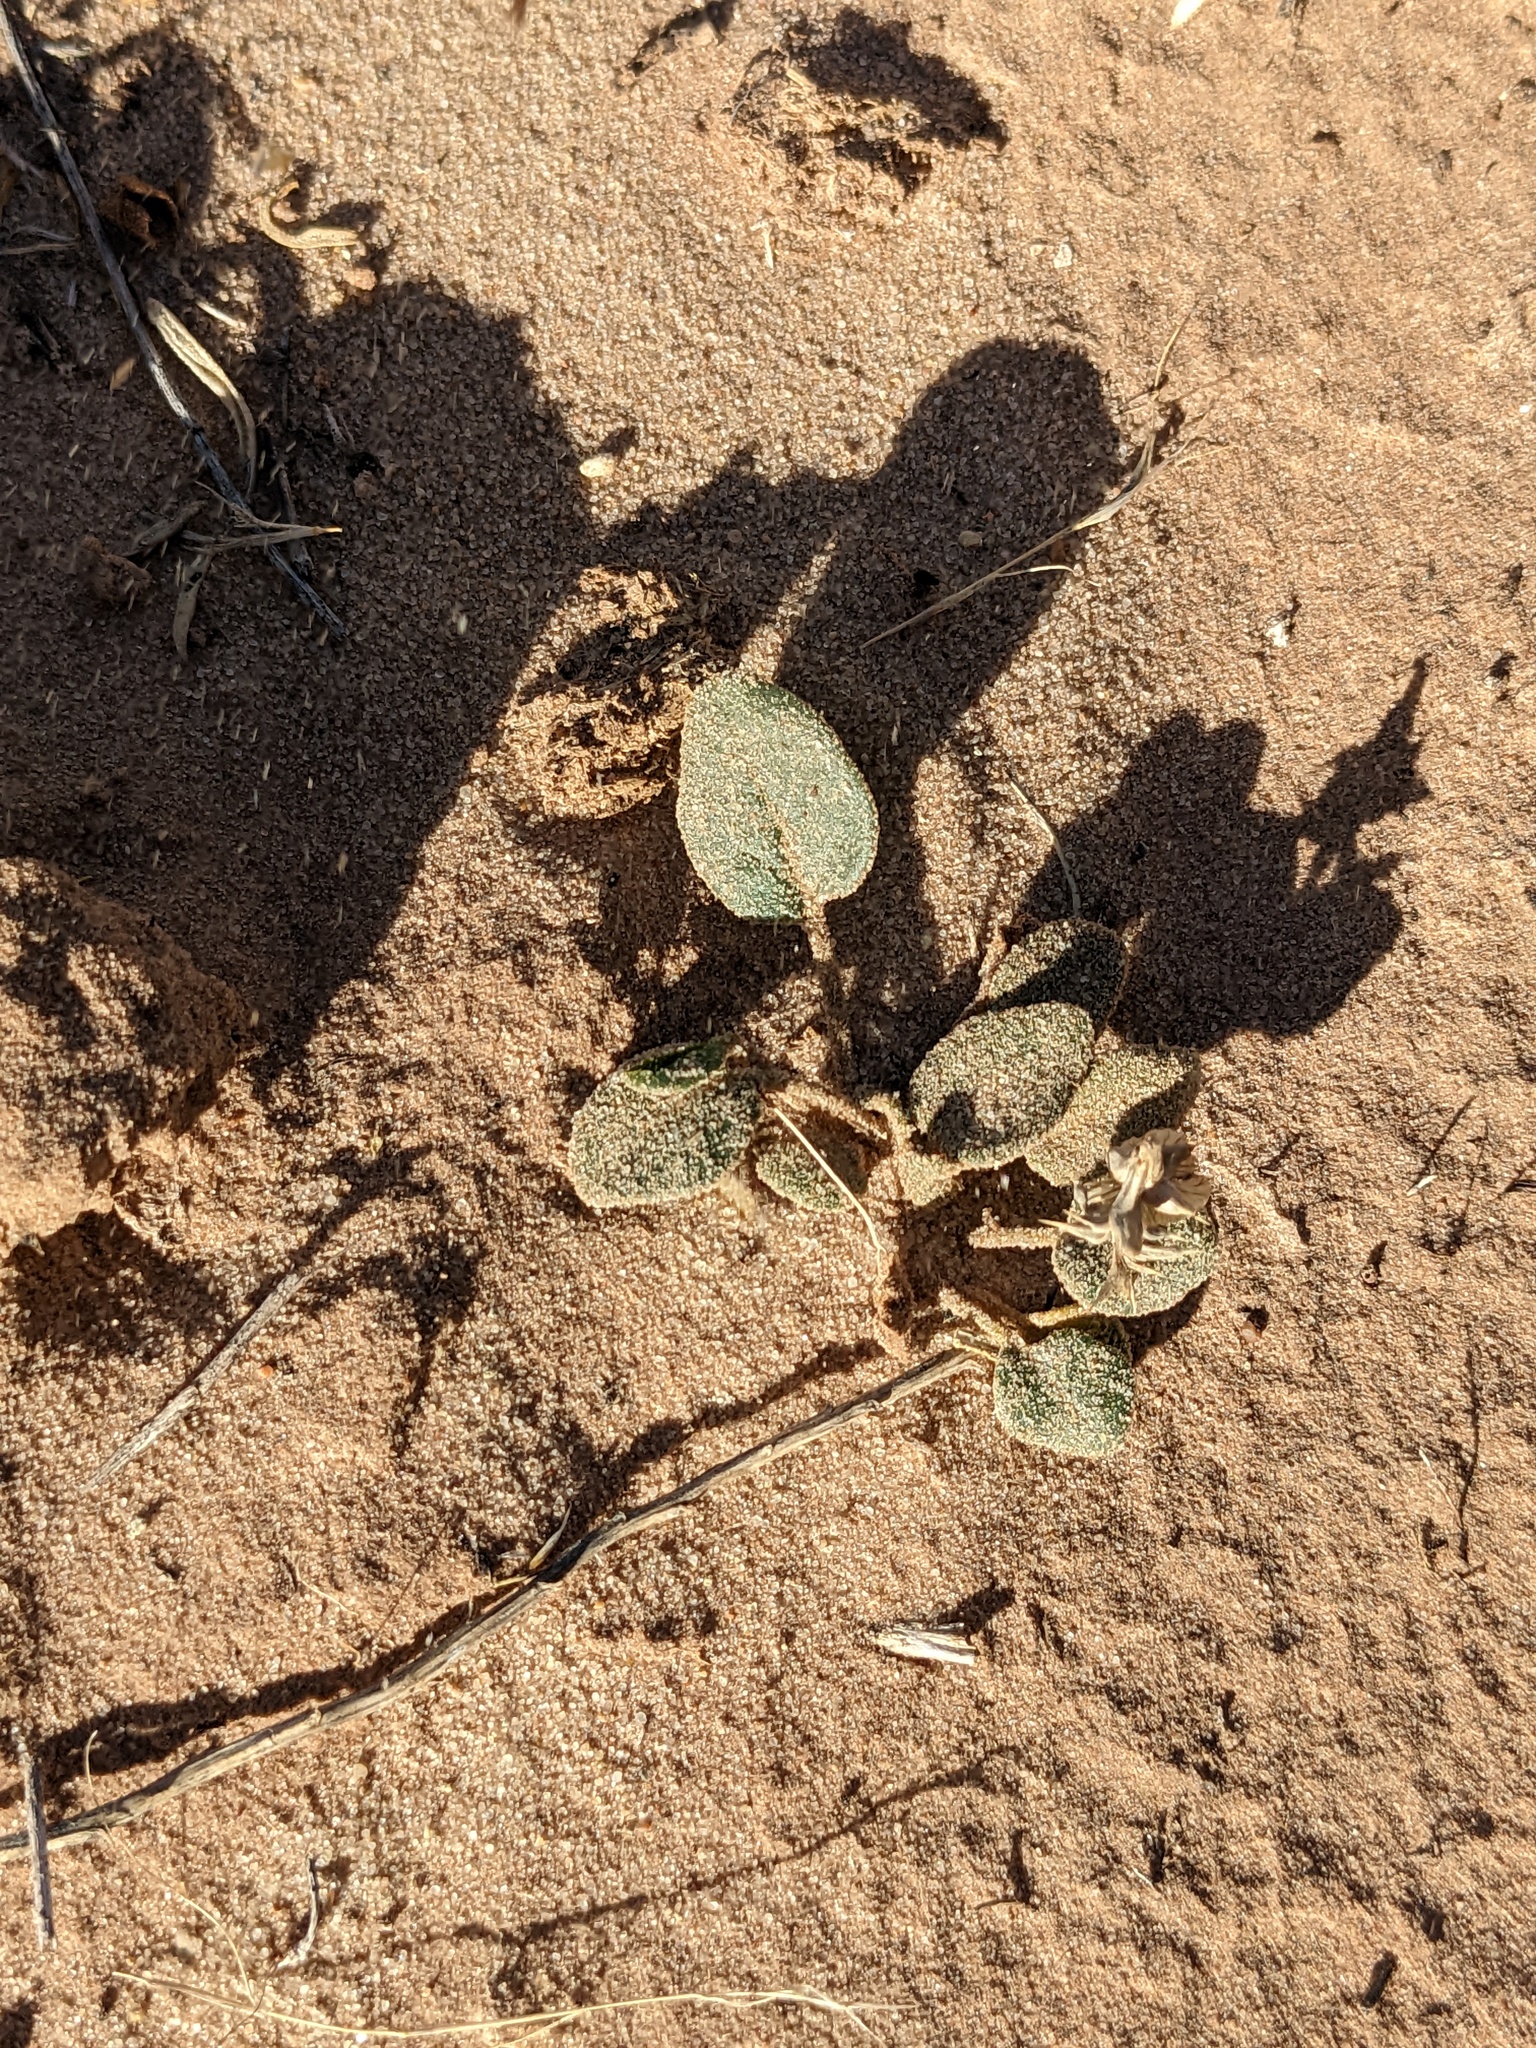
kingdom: Plantae
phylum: Tracheophyta
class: Magnoliopsida
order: Caryophyllales
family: Nyctaginaceae
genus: Abronia
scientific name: Abronia elliptica
